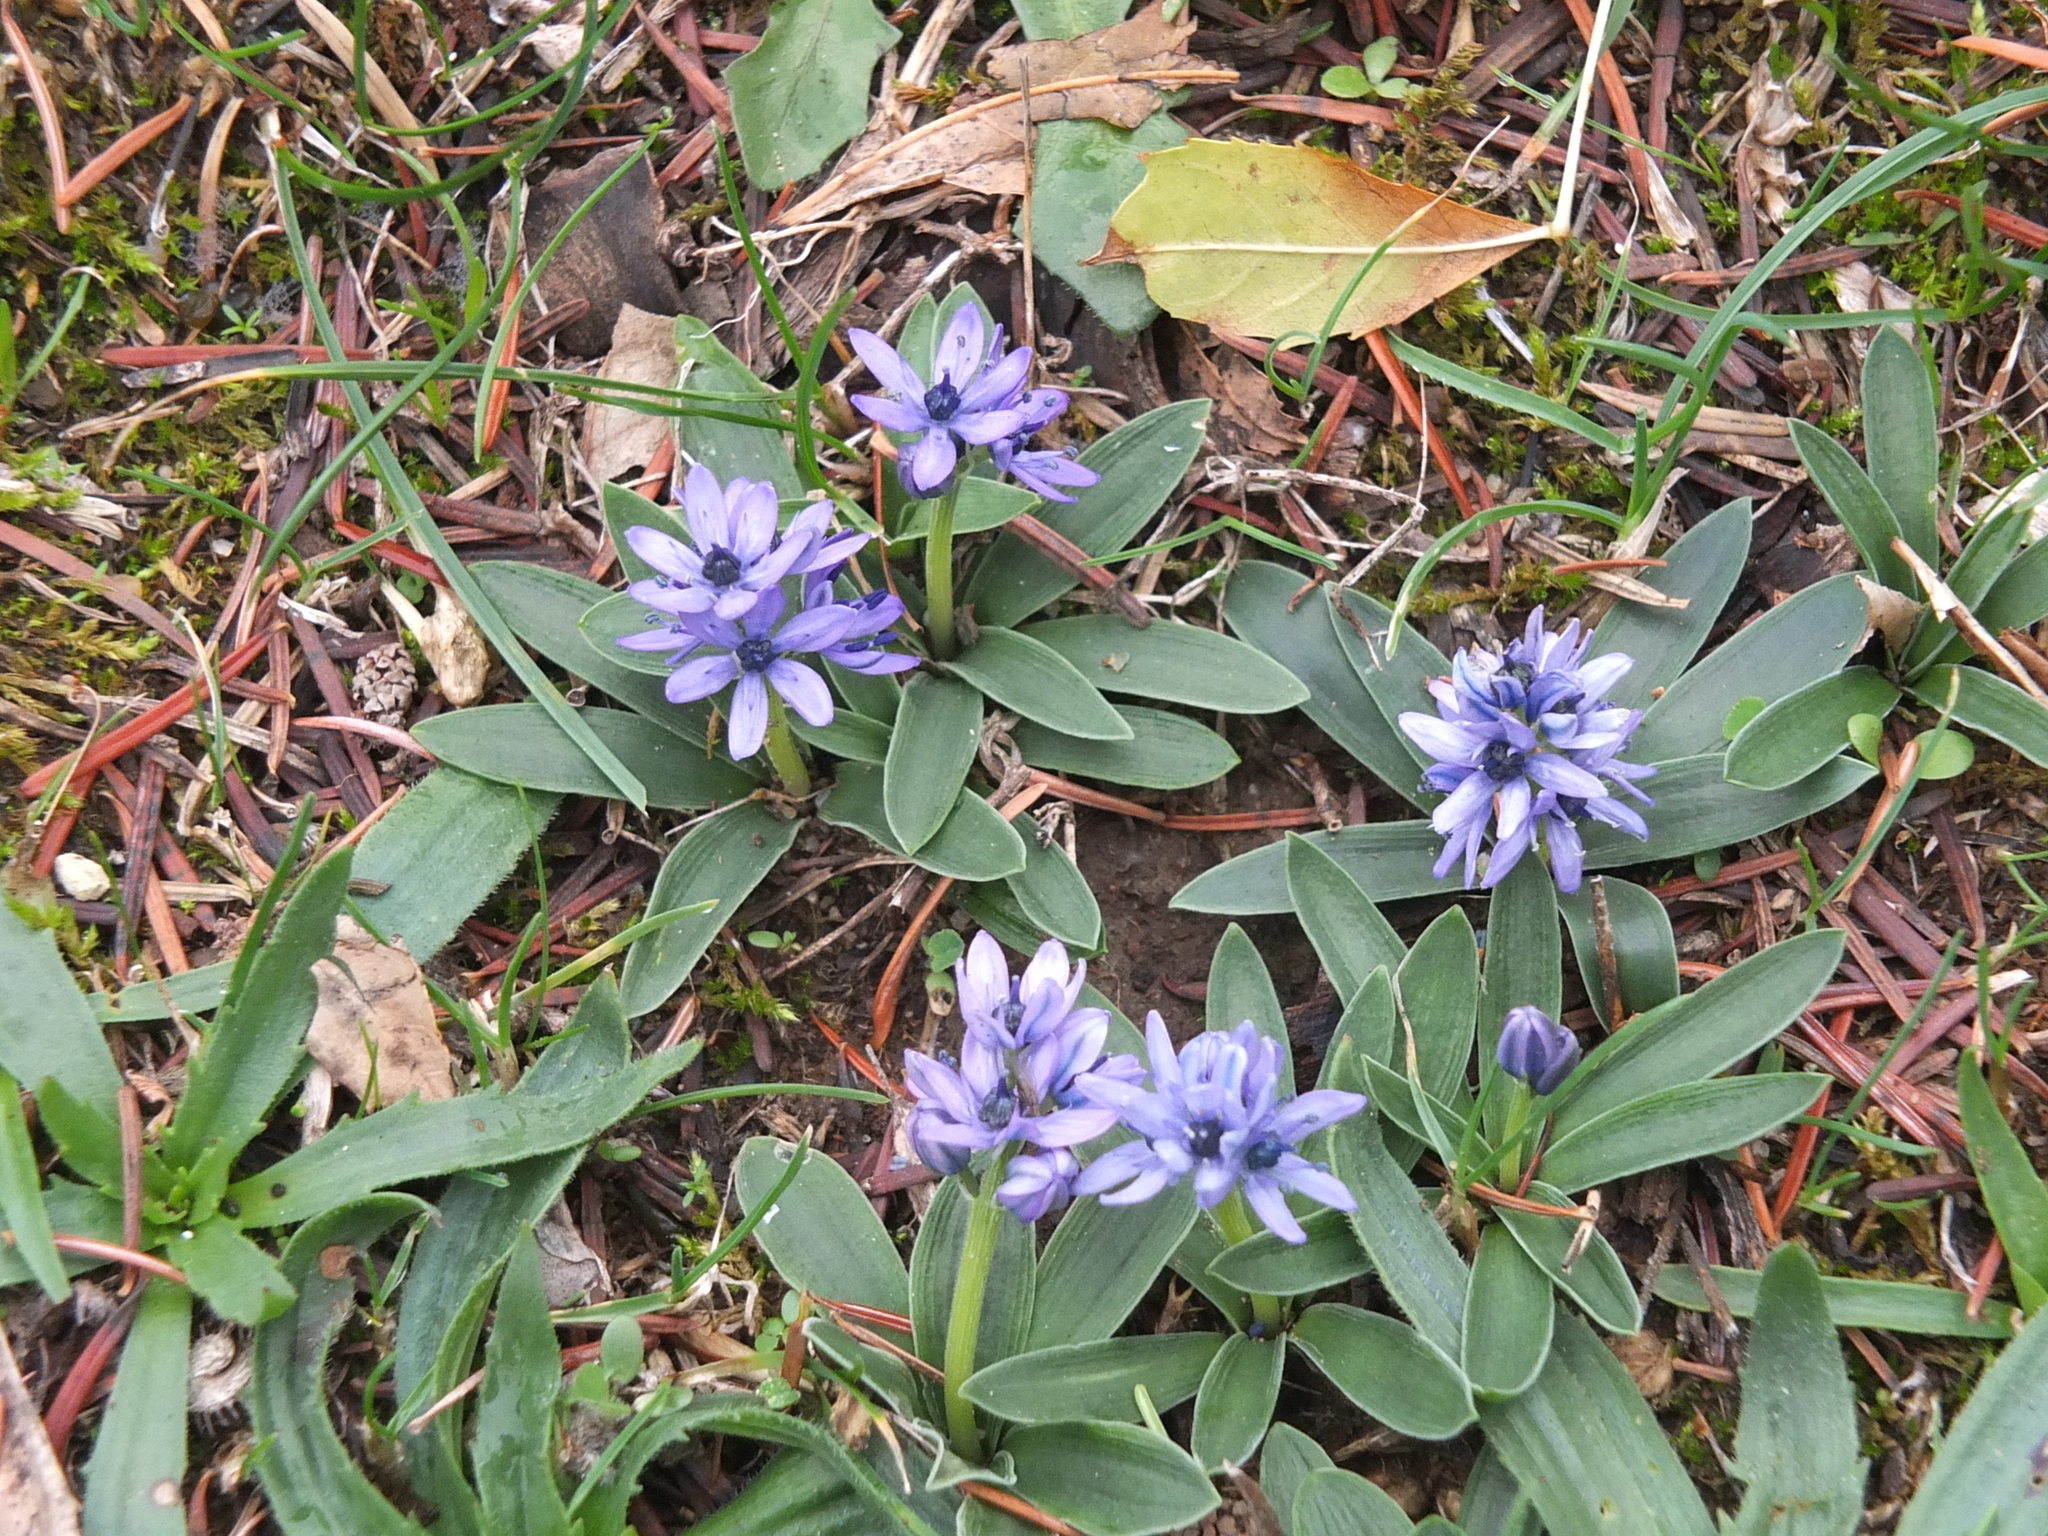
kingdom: Plantae
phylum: Tracheophyta
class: Liliopsida
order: Asparagales
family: Asparagaceae
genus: Hyacinthoides
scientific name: Hyacinthoides lingulata
